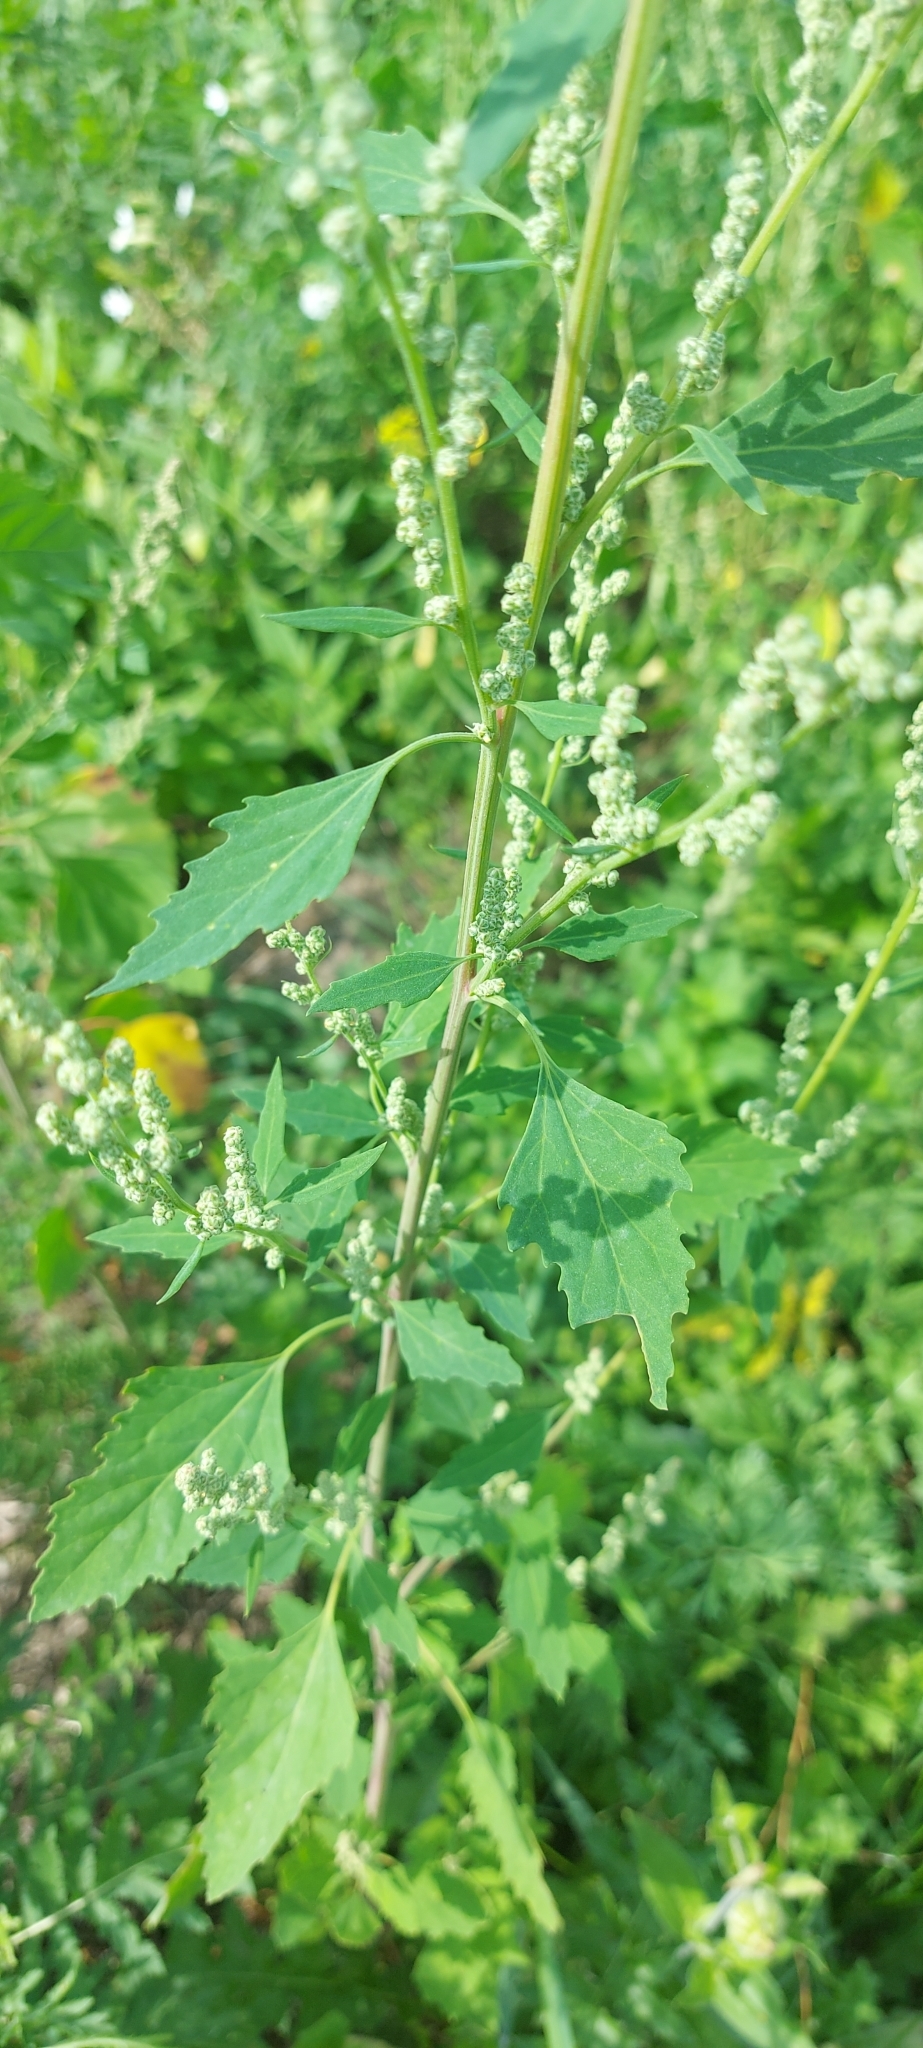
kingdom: Plantae
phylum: Tracheophyta
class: Magnoliopsida
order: Caryophyllales
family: Amaranthaceae
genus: Chenopodium
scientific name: Chenopodium album
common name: Fat-hen
